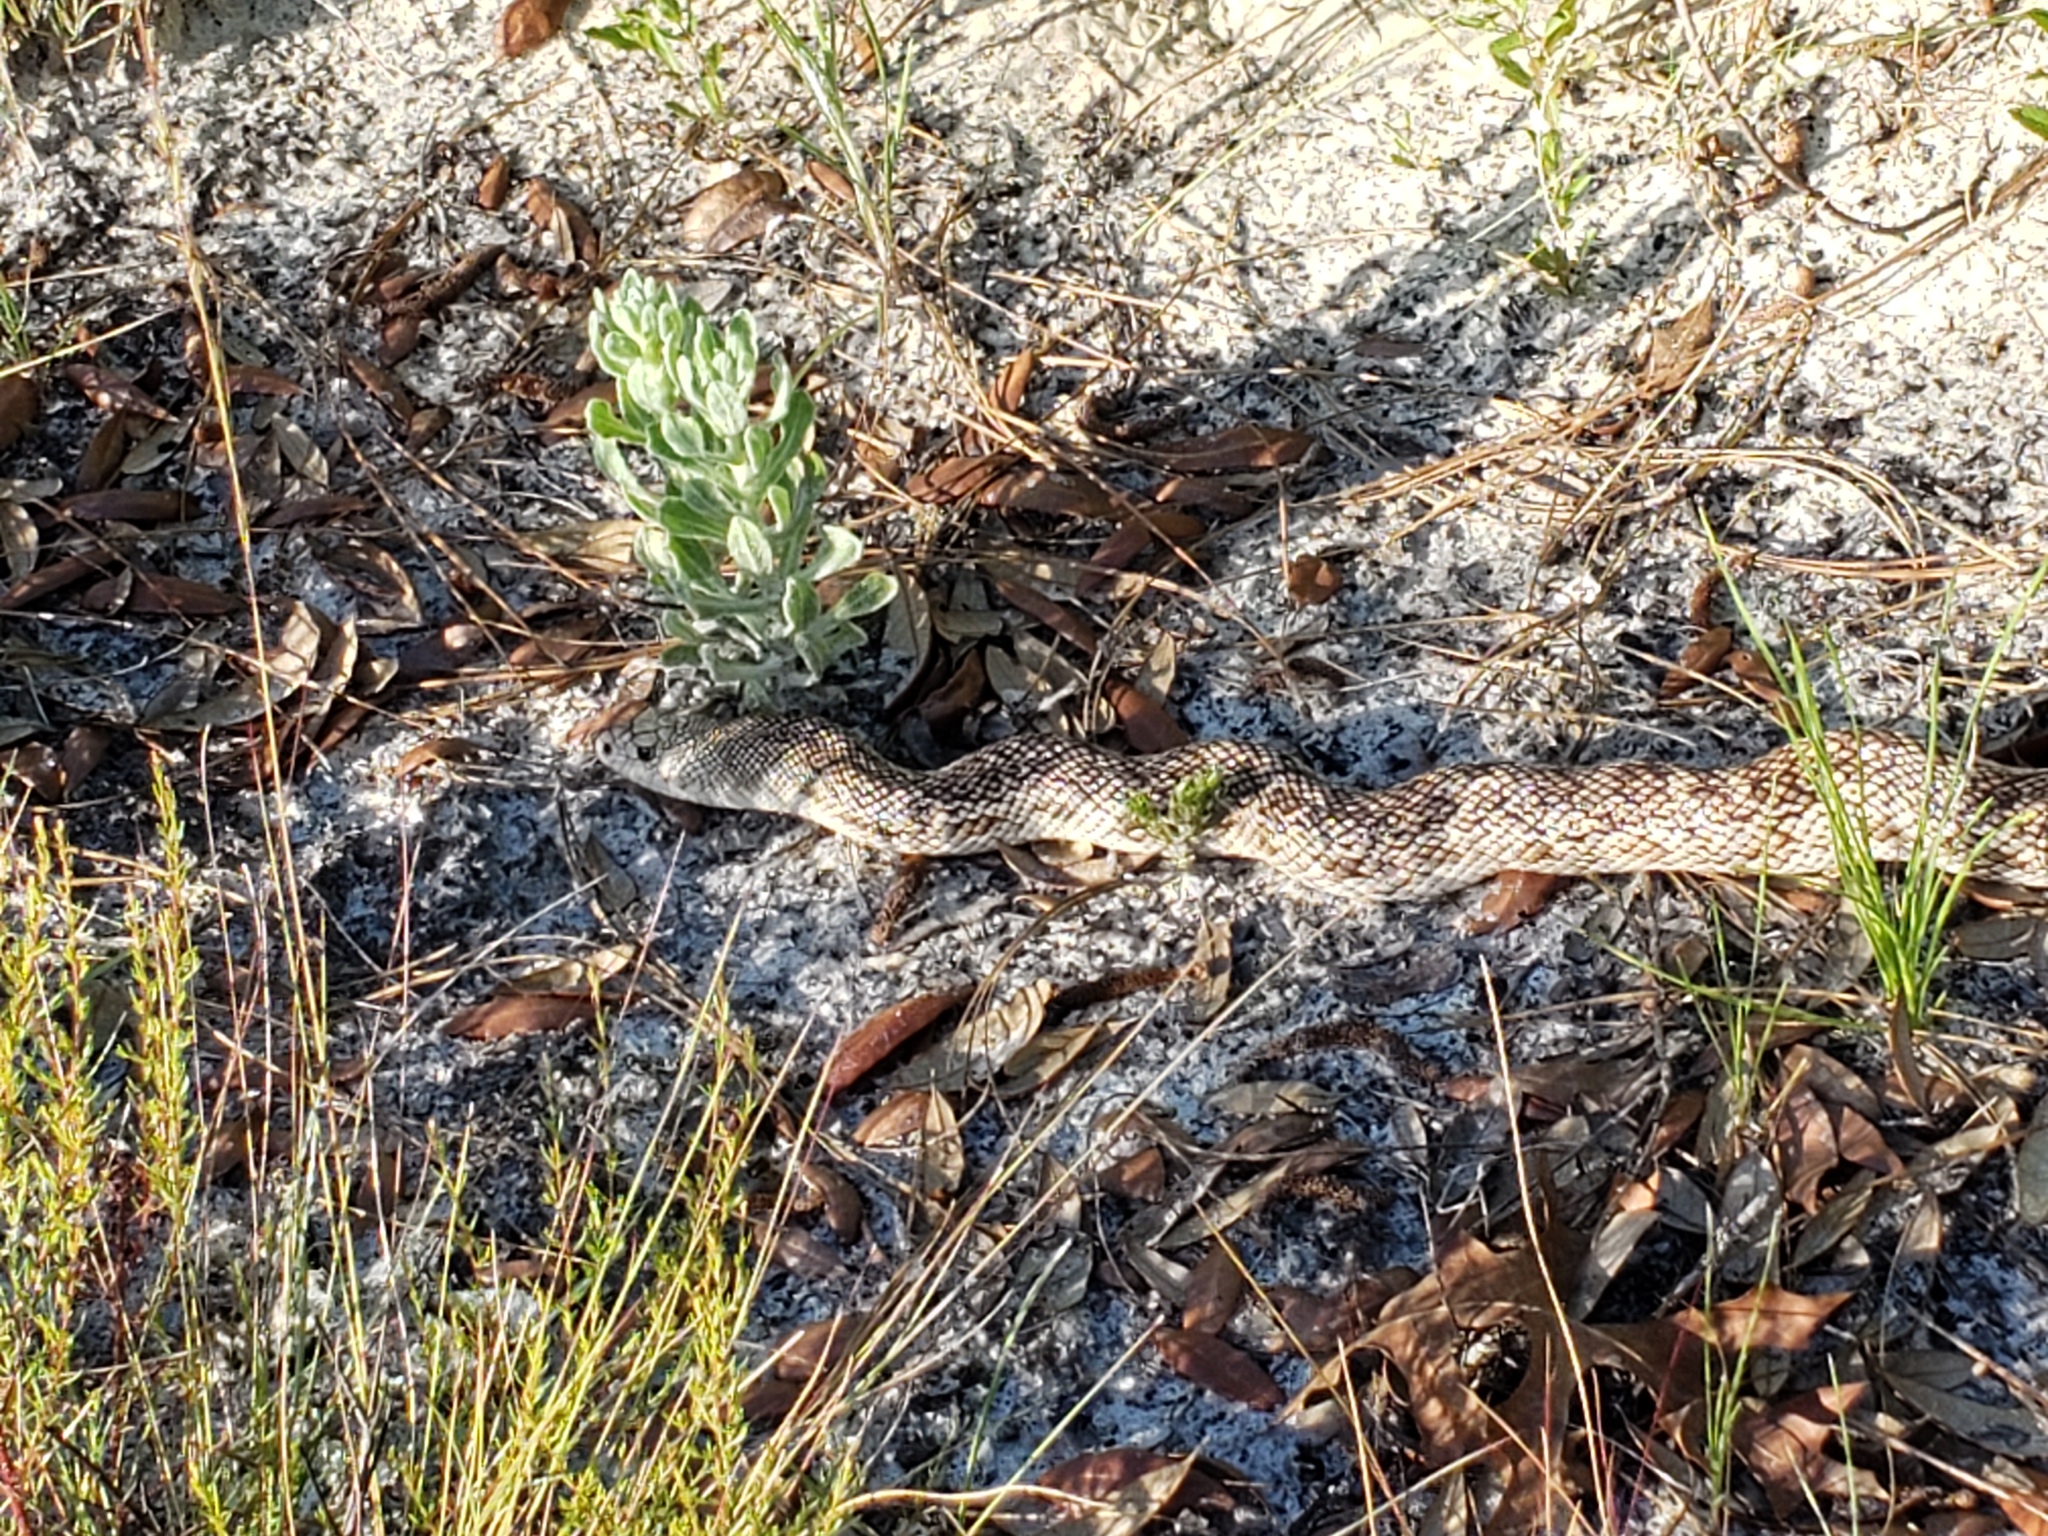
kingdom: Animalia
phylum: Chordata
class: Squamata
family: Colubridae
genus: Pituophis
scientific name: Pituophis melanoleucus
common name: Pine snake
